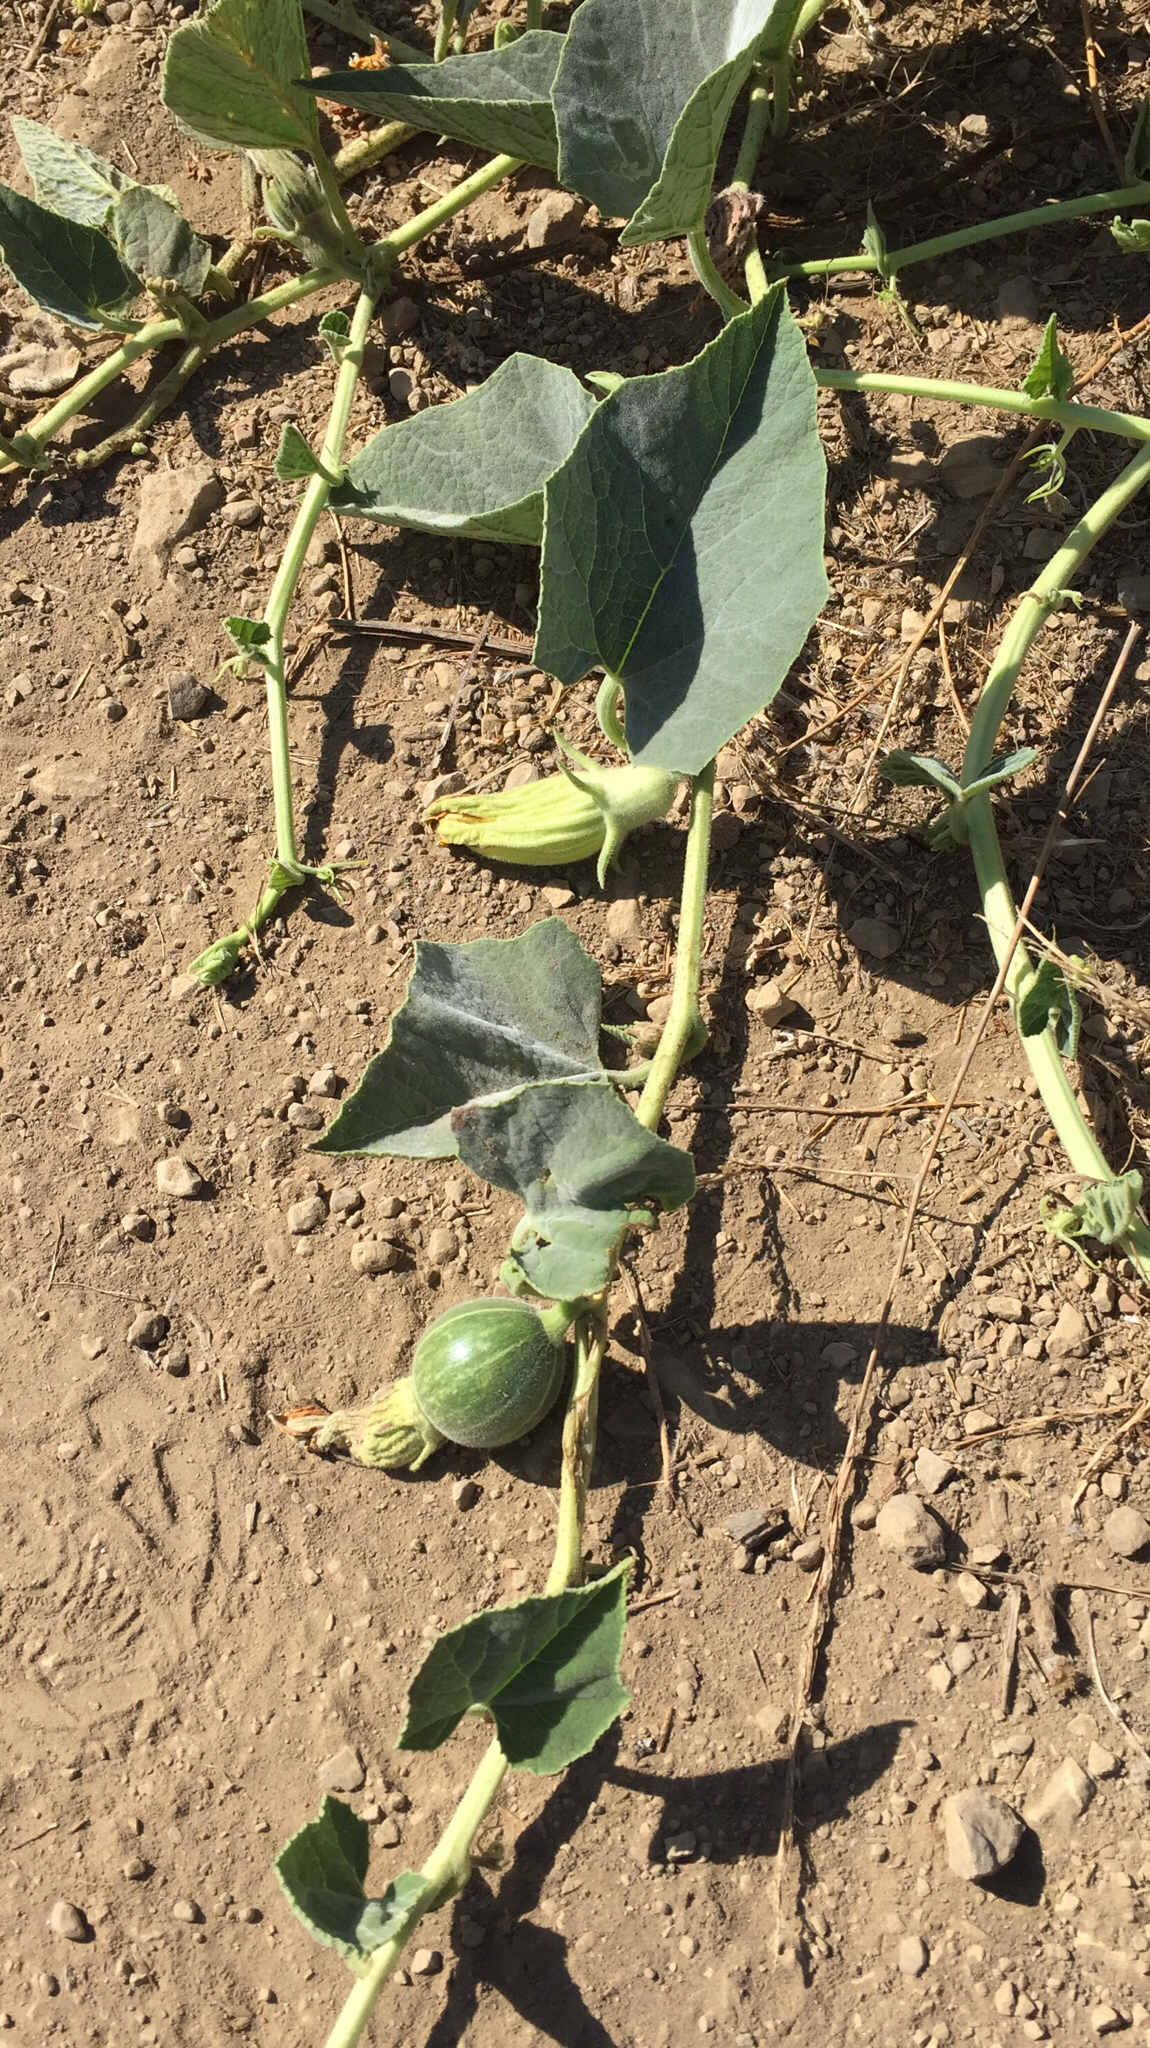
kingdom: Plantae
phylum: Tracheophyta
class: Magnoliopsida
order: Cucurbitales
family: Cucurbitaceae
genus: Cucurbita
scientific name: Cucurbita foetidissima
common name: Buffalo gourd
